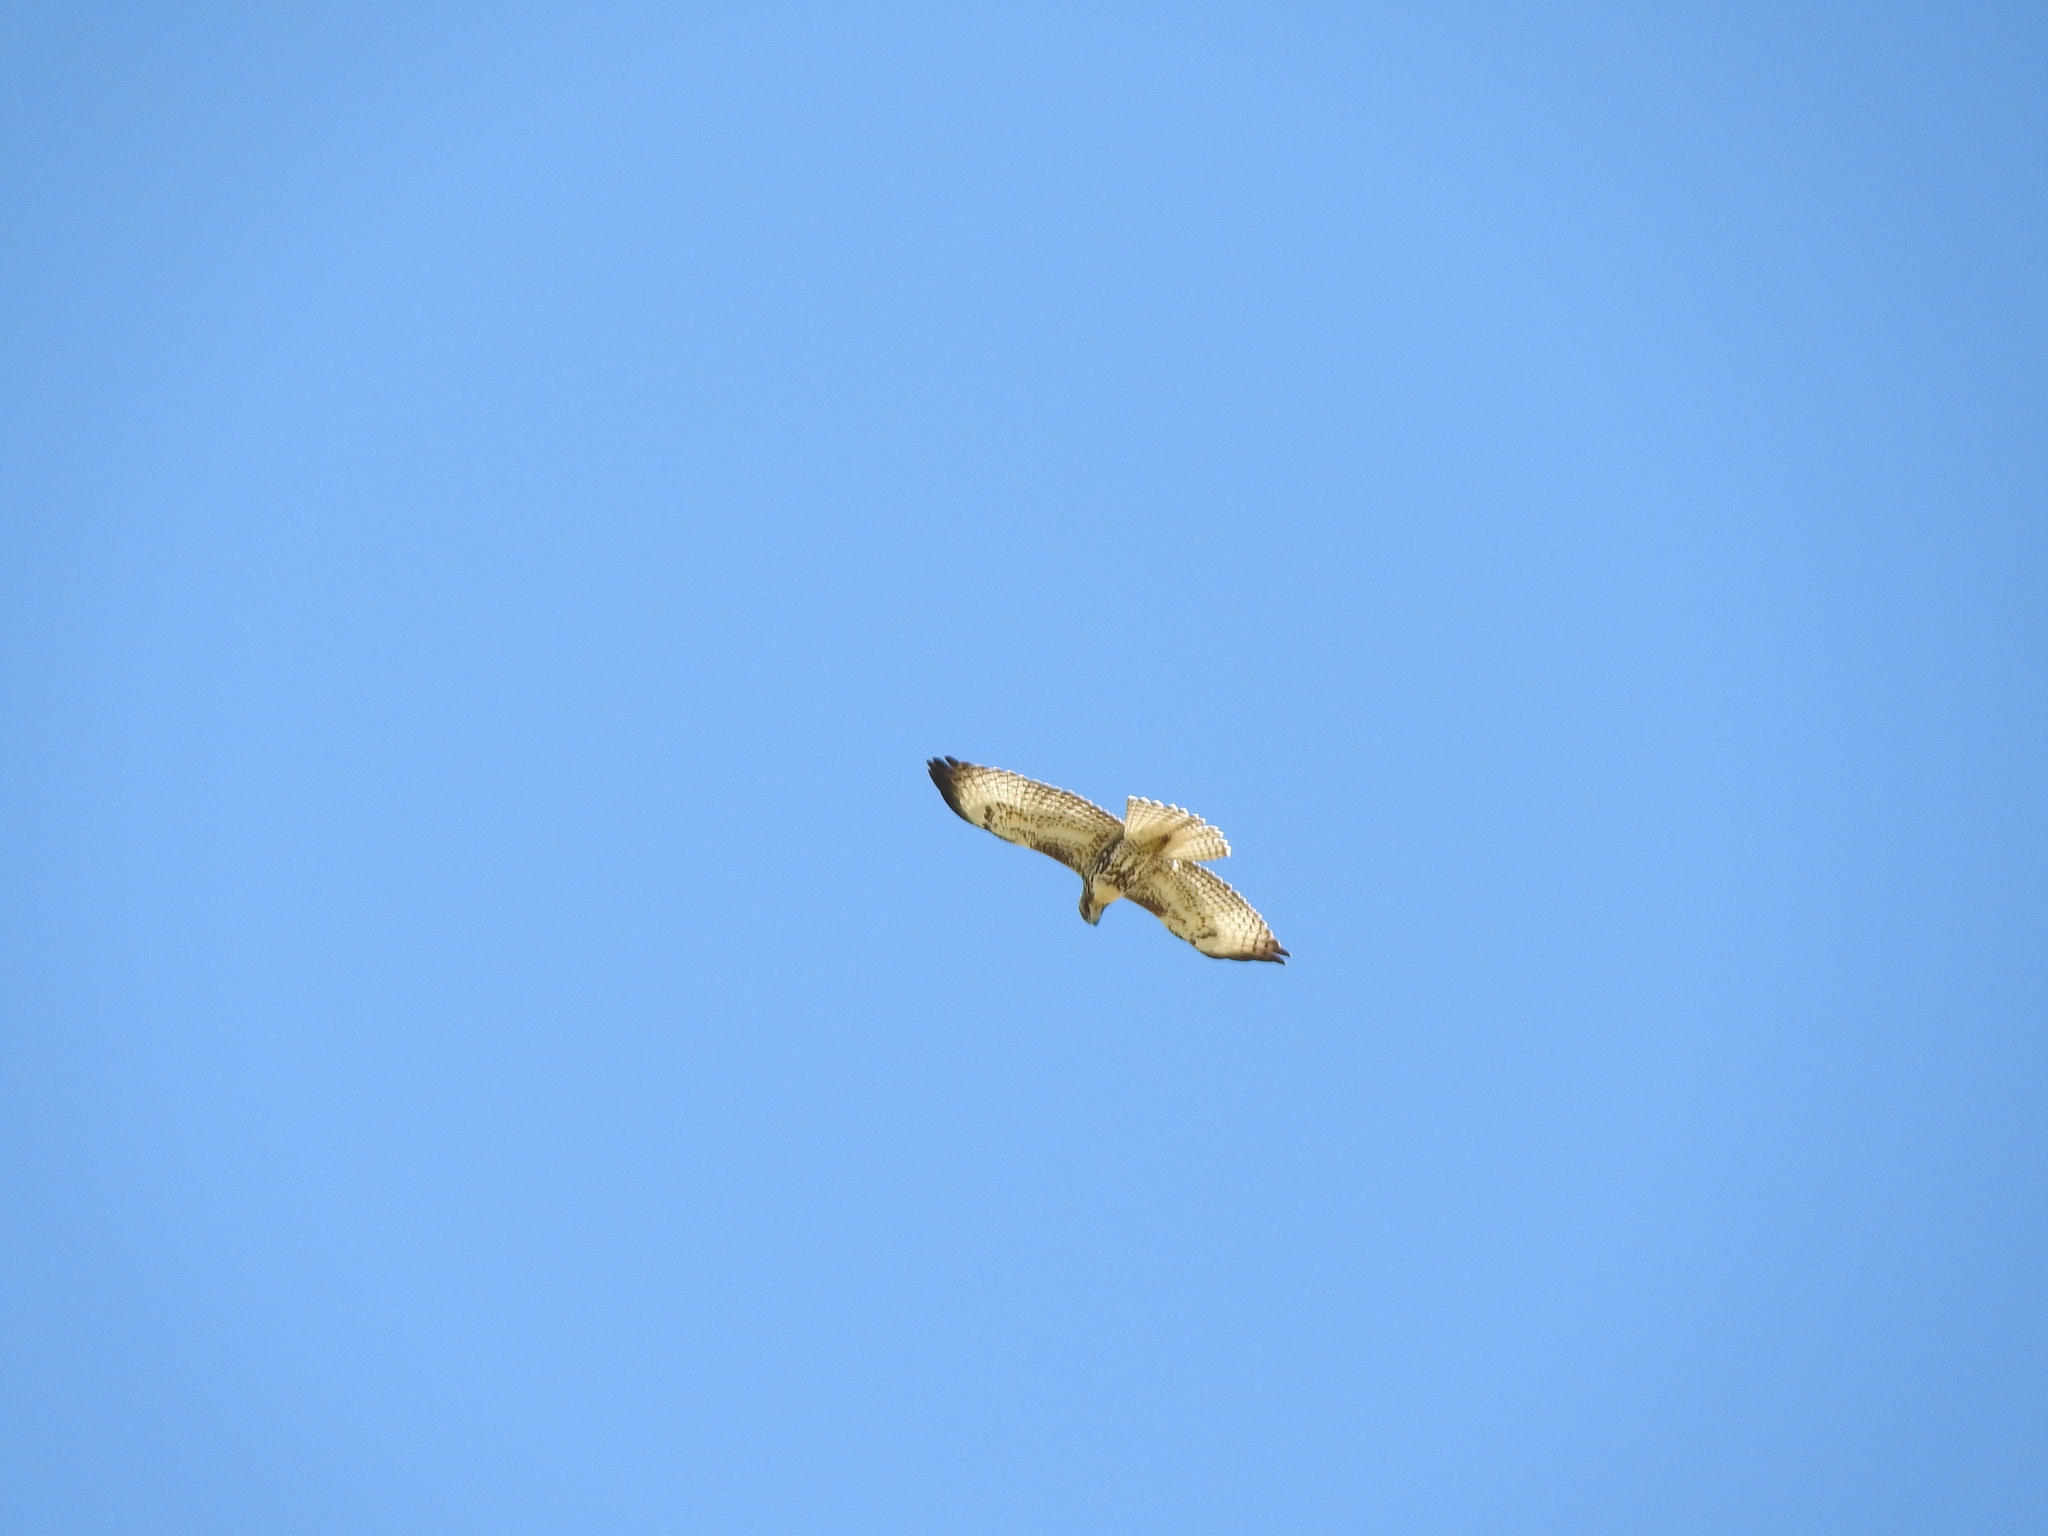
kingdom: Animalia
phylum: Chordata
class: Aves
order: Accipitriformes
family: Accipitridae
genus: Buteo
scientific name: Buteo jamaicensis
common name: Red-tailed hawk
